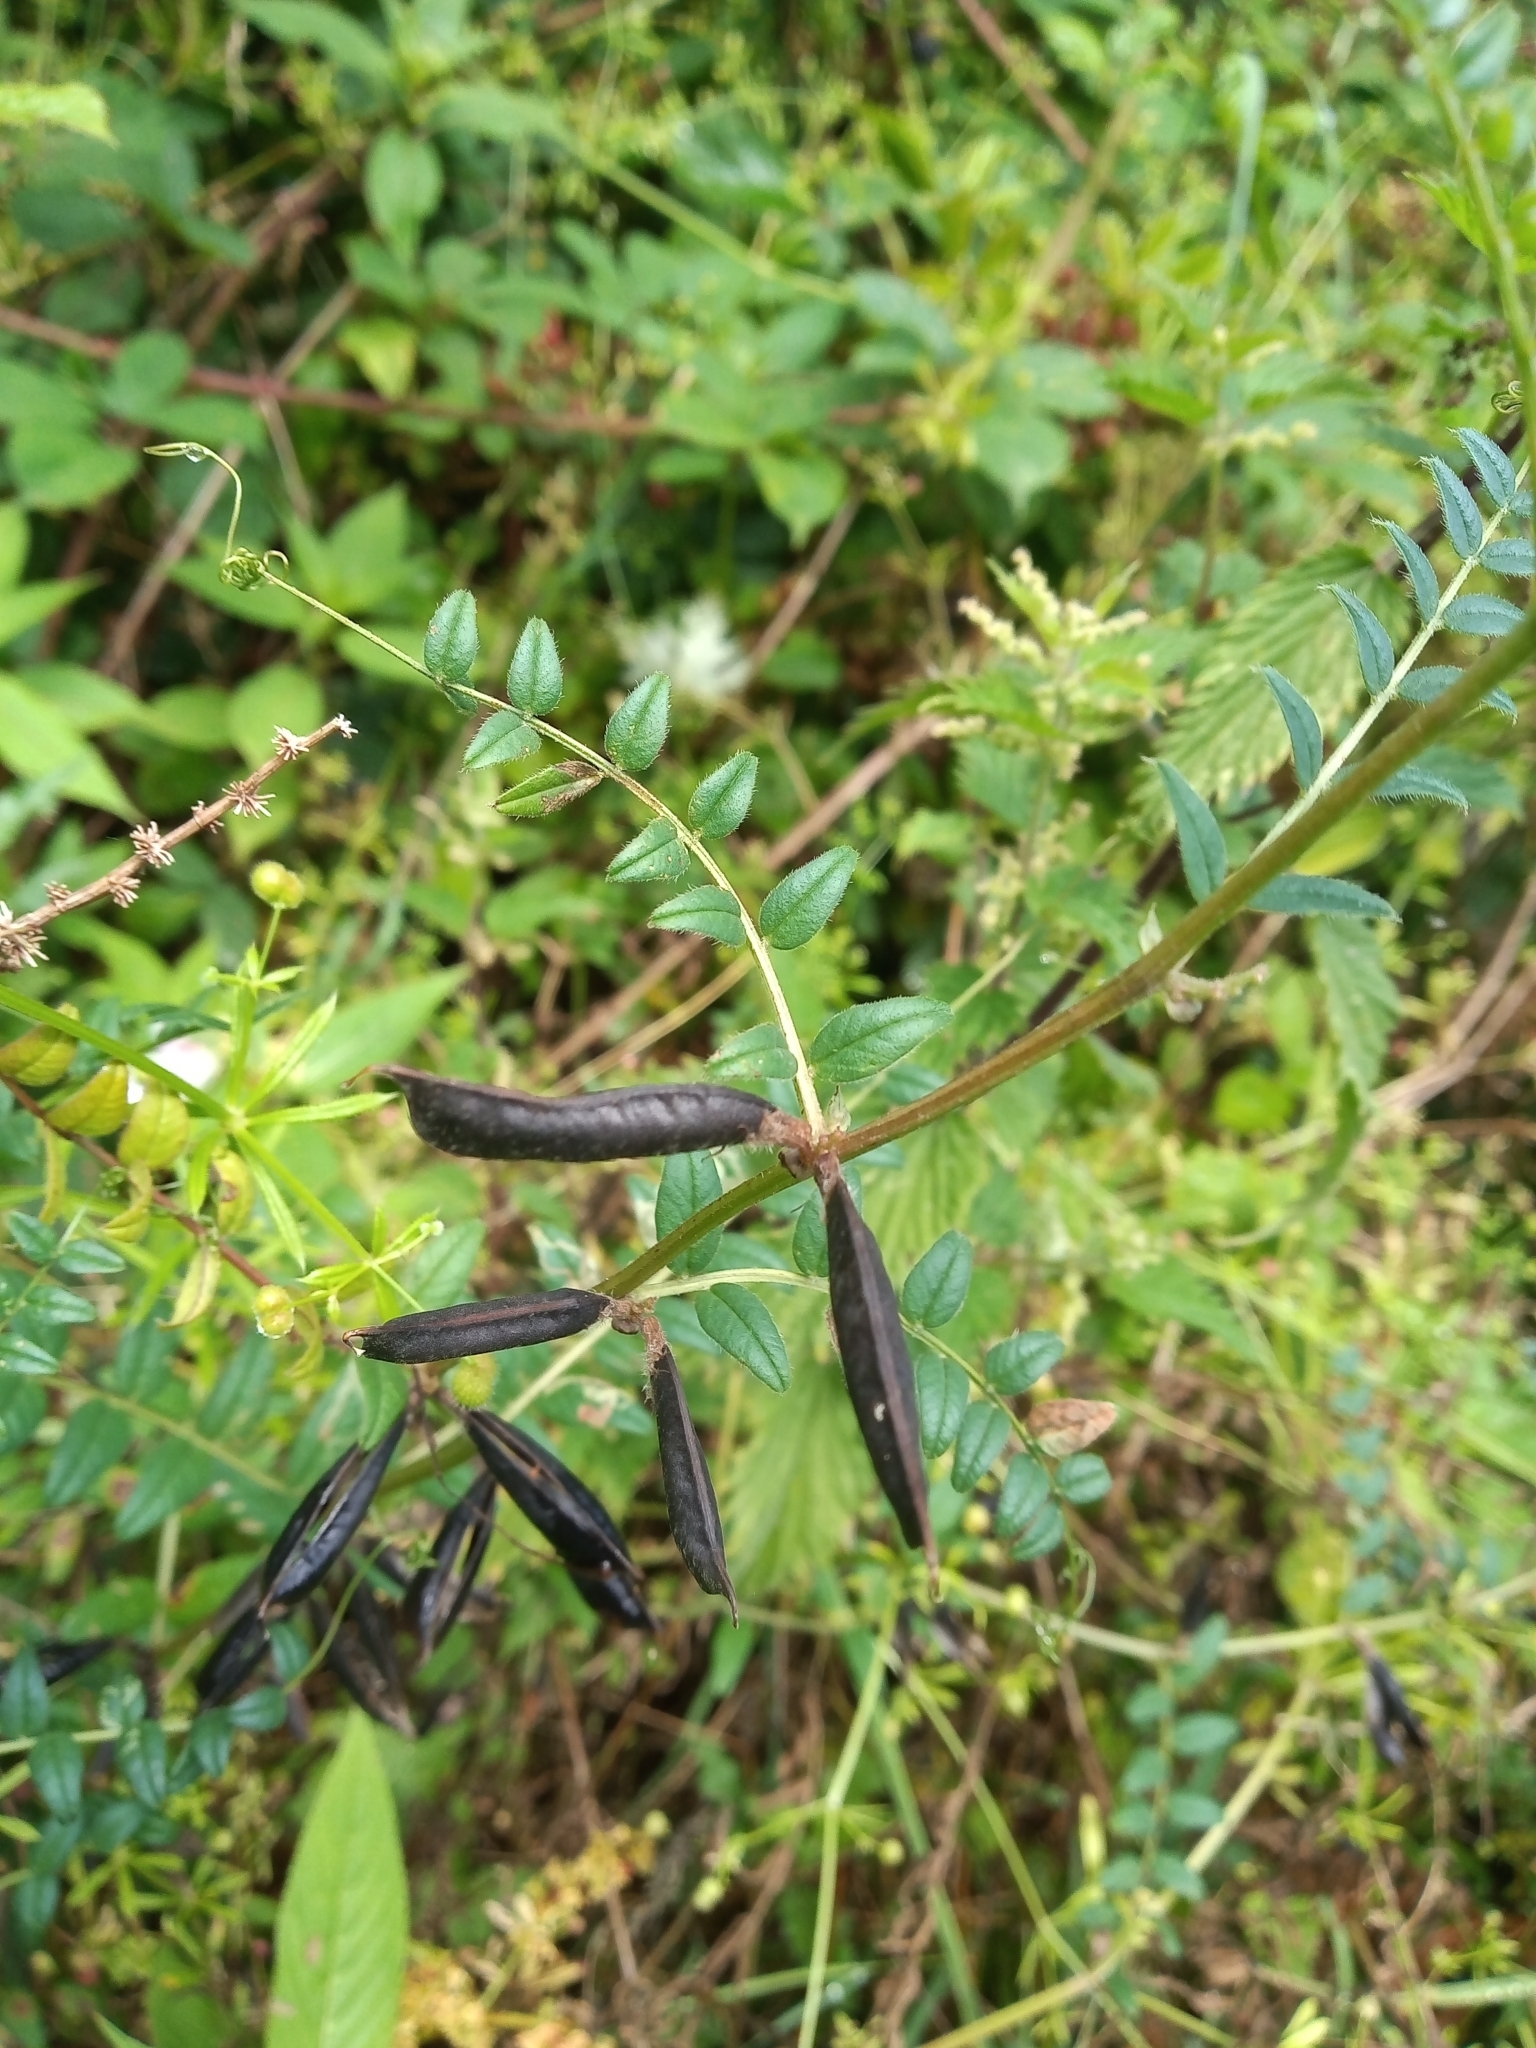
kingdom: Plantae
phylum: Tracheophyta
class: Magnoliopsida
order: Fabales
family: Fabaceae
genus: Vicia
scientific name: Vicia sepium
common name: Bush vetch
